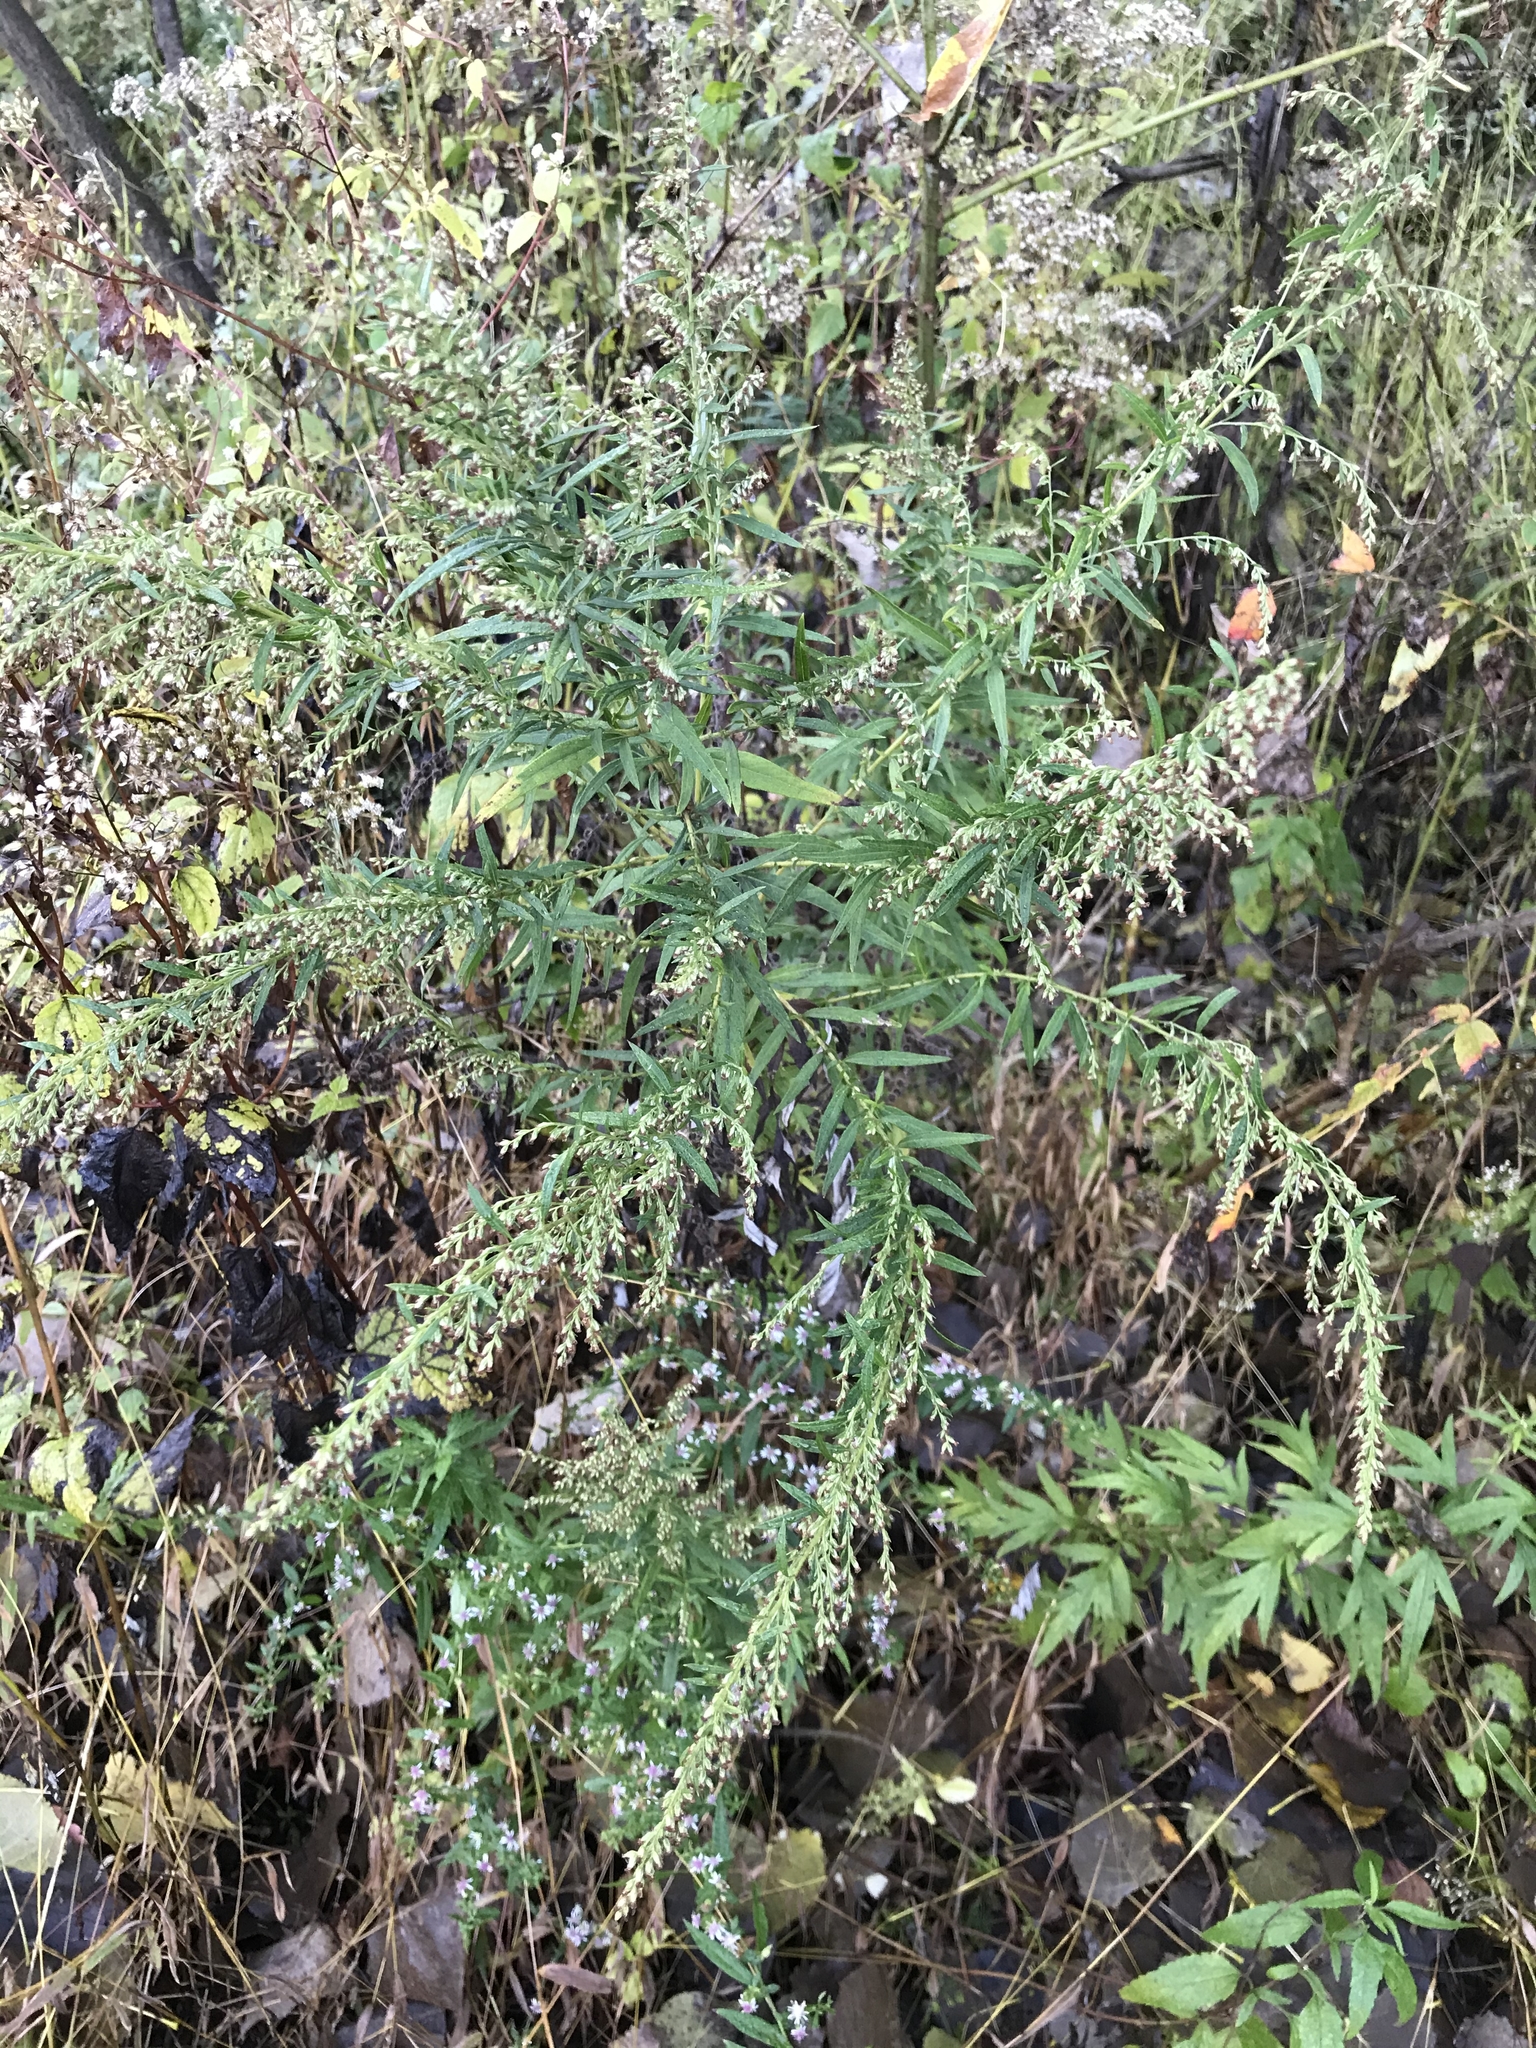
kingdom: Plantae
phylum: Tracheophyta
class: Magnoliopsida
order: Asterales
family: Asteraceae
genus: Artemisia
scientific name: Artemisia vulgaris
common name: Mugwort
